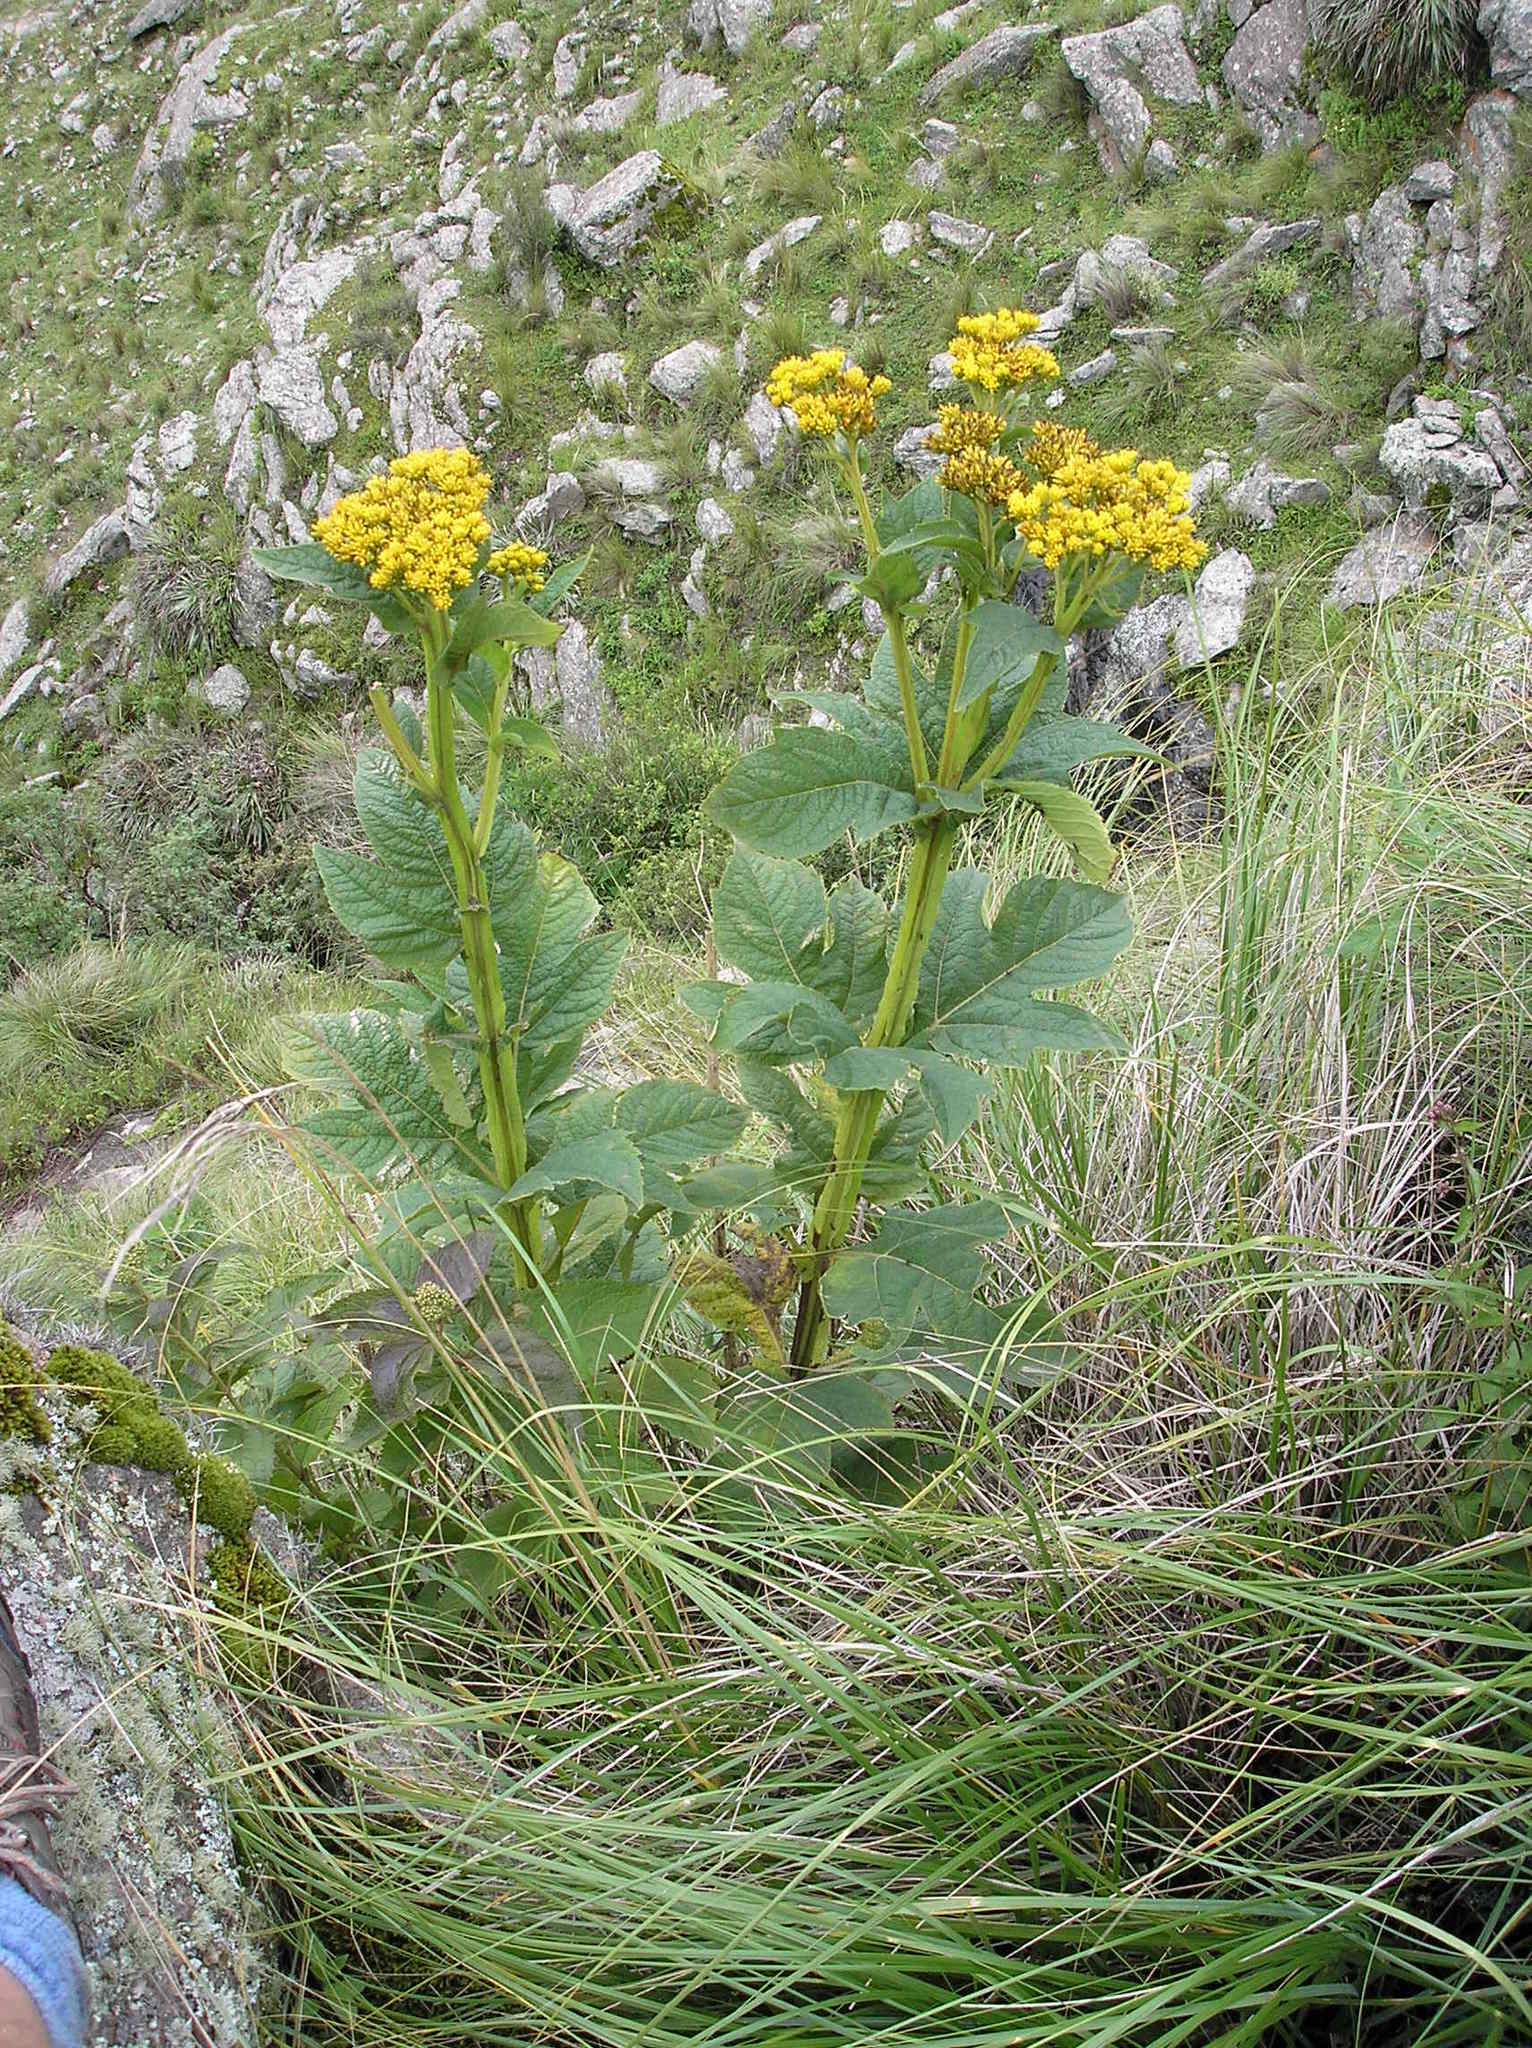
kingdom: Plantae
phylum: Tracheophyta
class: Magnoliopsida
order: Asterales
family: Asteraceae
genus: Verbesina
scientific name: Verbesina suncho
